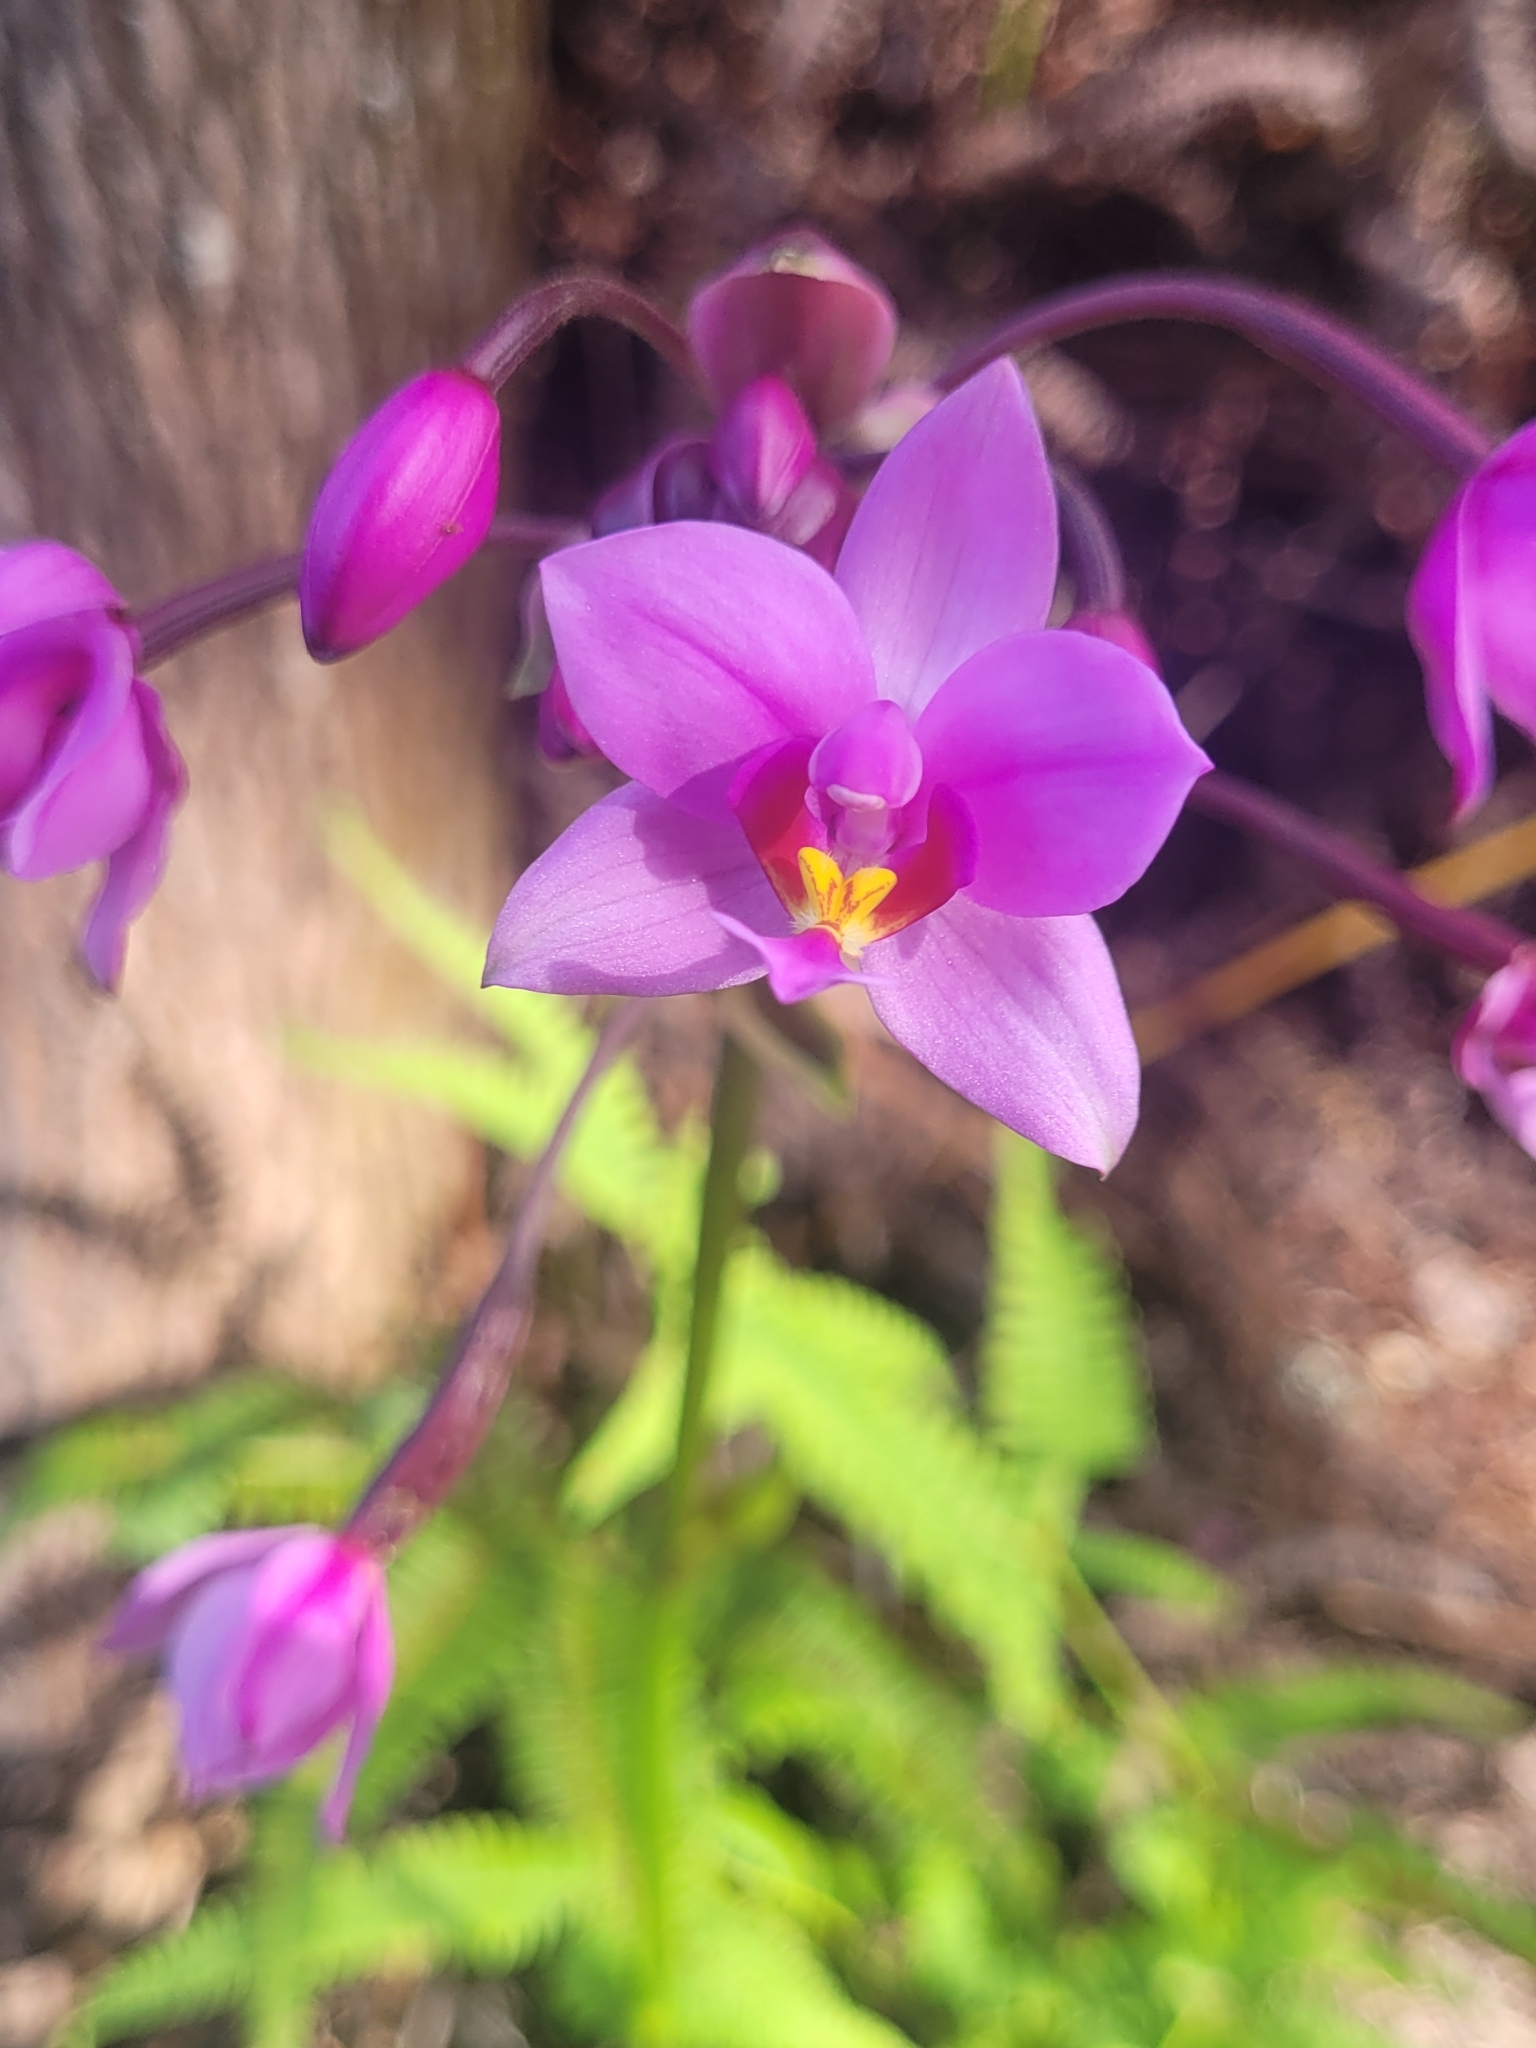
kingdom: Plantae
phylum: Tracheophyta
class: Liliopsida
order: Asparagales
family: Orchidaceae
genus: Spathoglottis
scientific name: Spathoglottis plicata
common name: Philippine ground orchid
